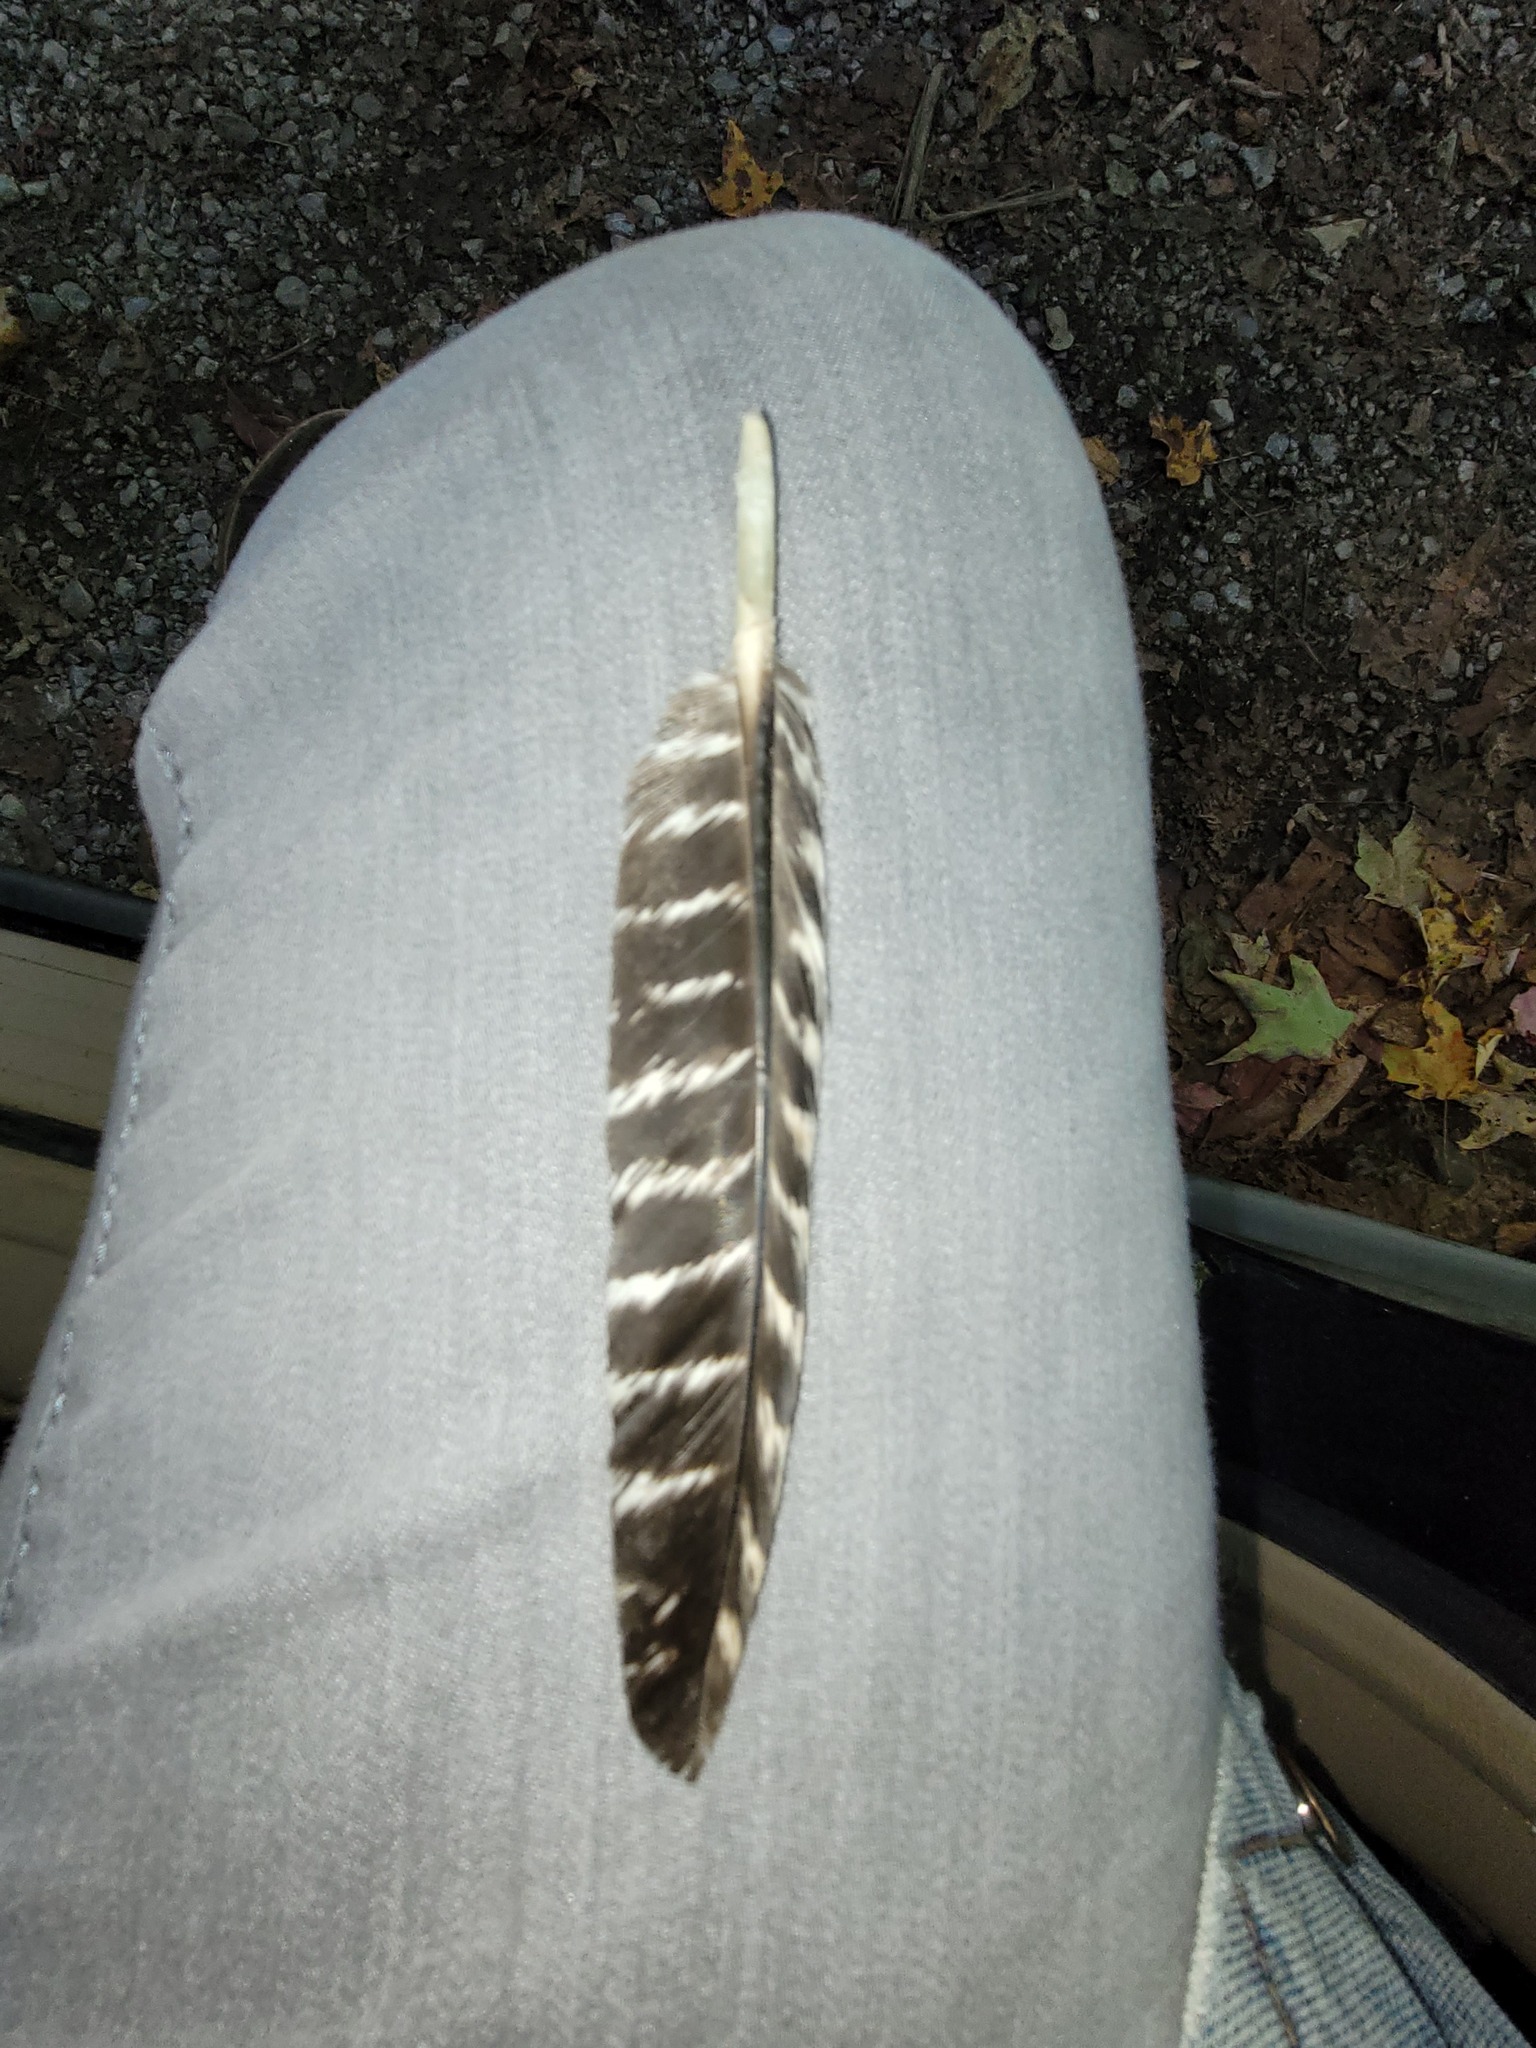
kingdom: Animalia
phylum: Chordata
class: Aves
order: Galliformes
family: Phasianidae
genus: Meleagris
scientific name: Meleagris gallopavo
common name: Wild turkey
